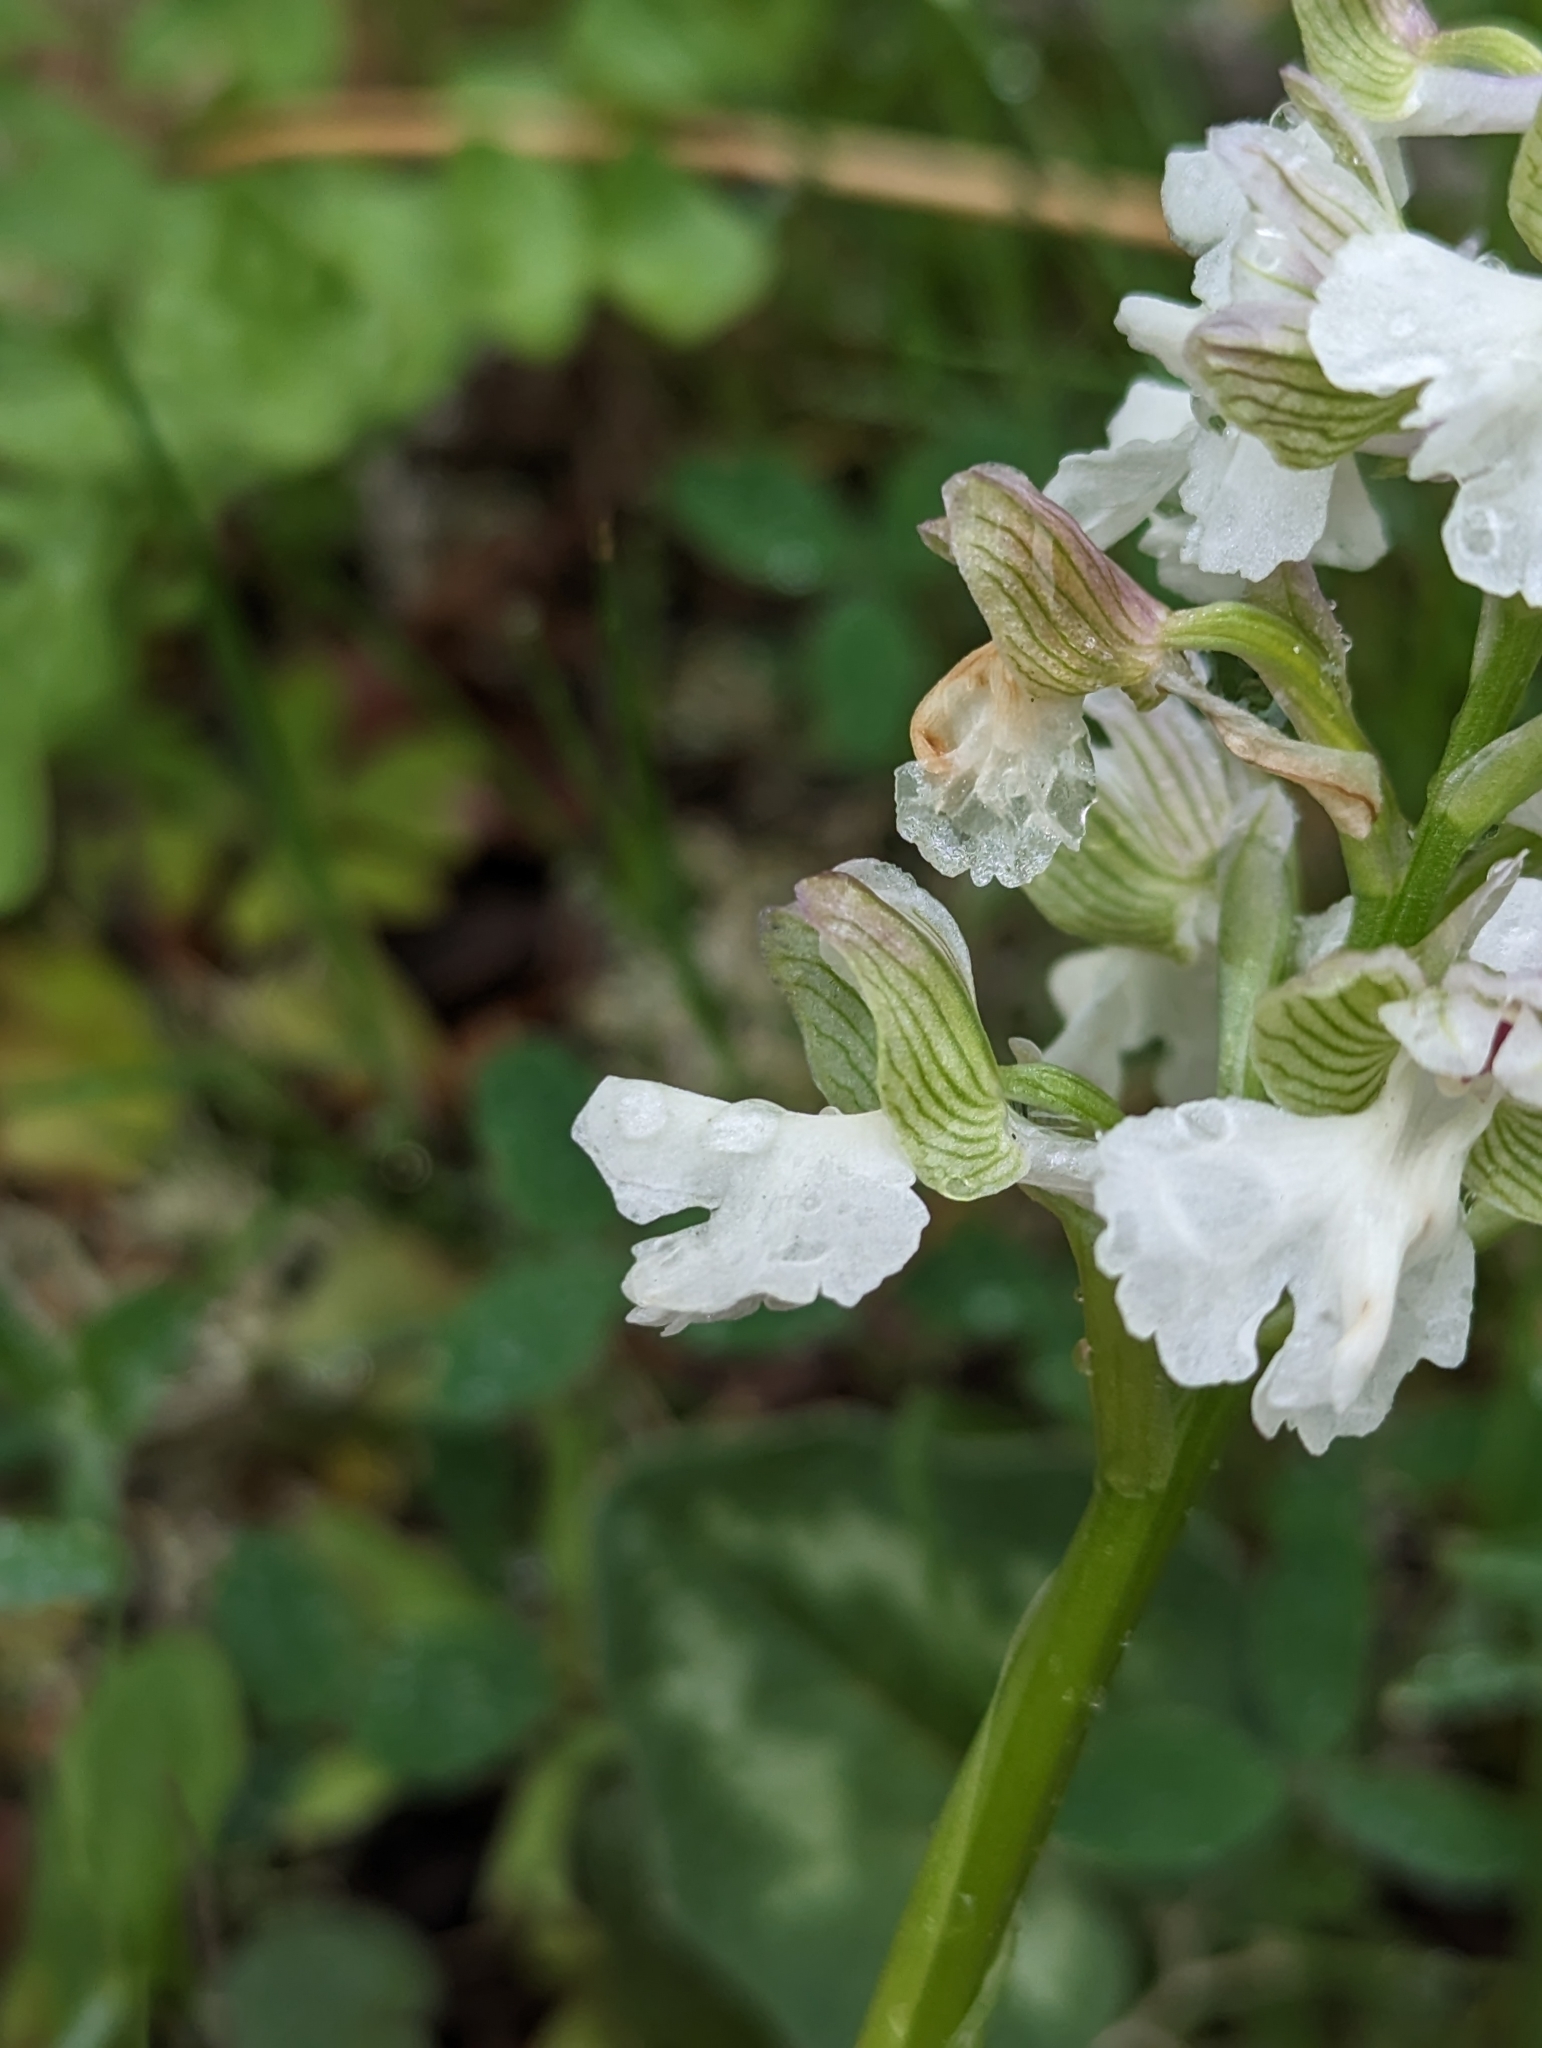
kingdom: Plantae
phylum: Tracheophyta
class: Liliopsida
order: Asparagales
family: Orchidaceae
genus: Anacamptis
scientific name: Anacamptis morio
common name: Green-winged orchid
